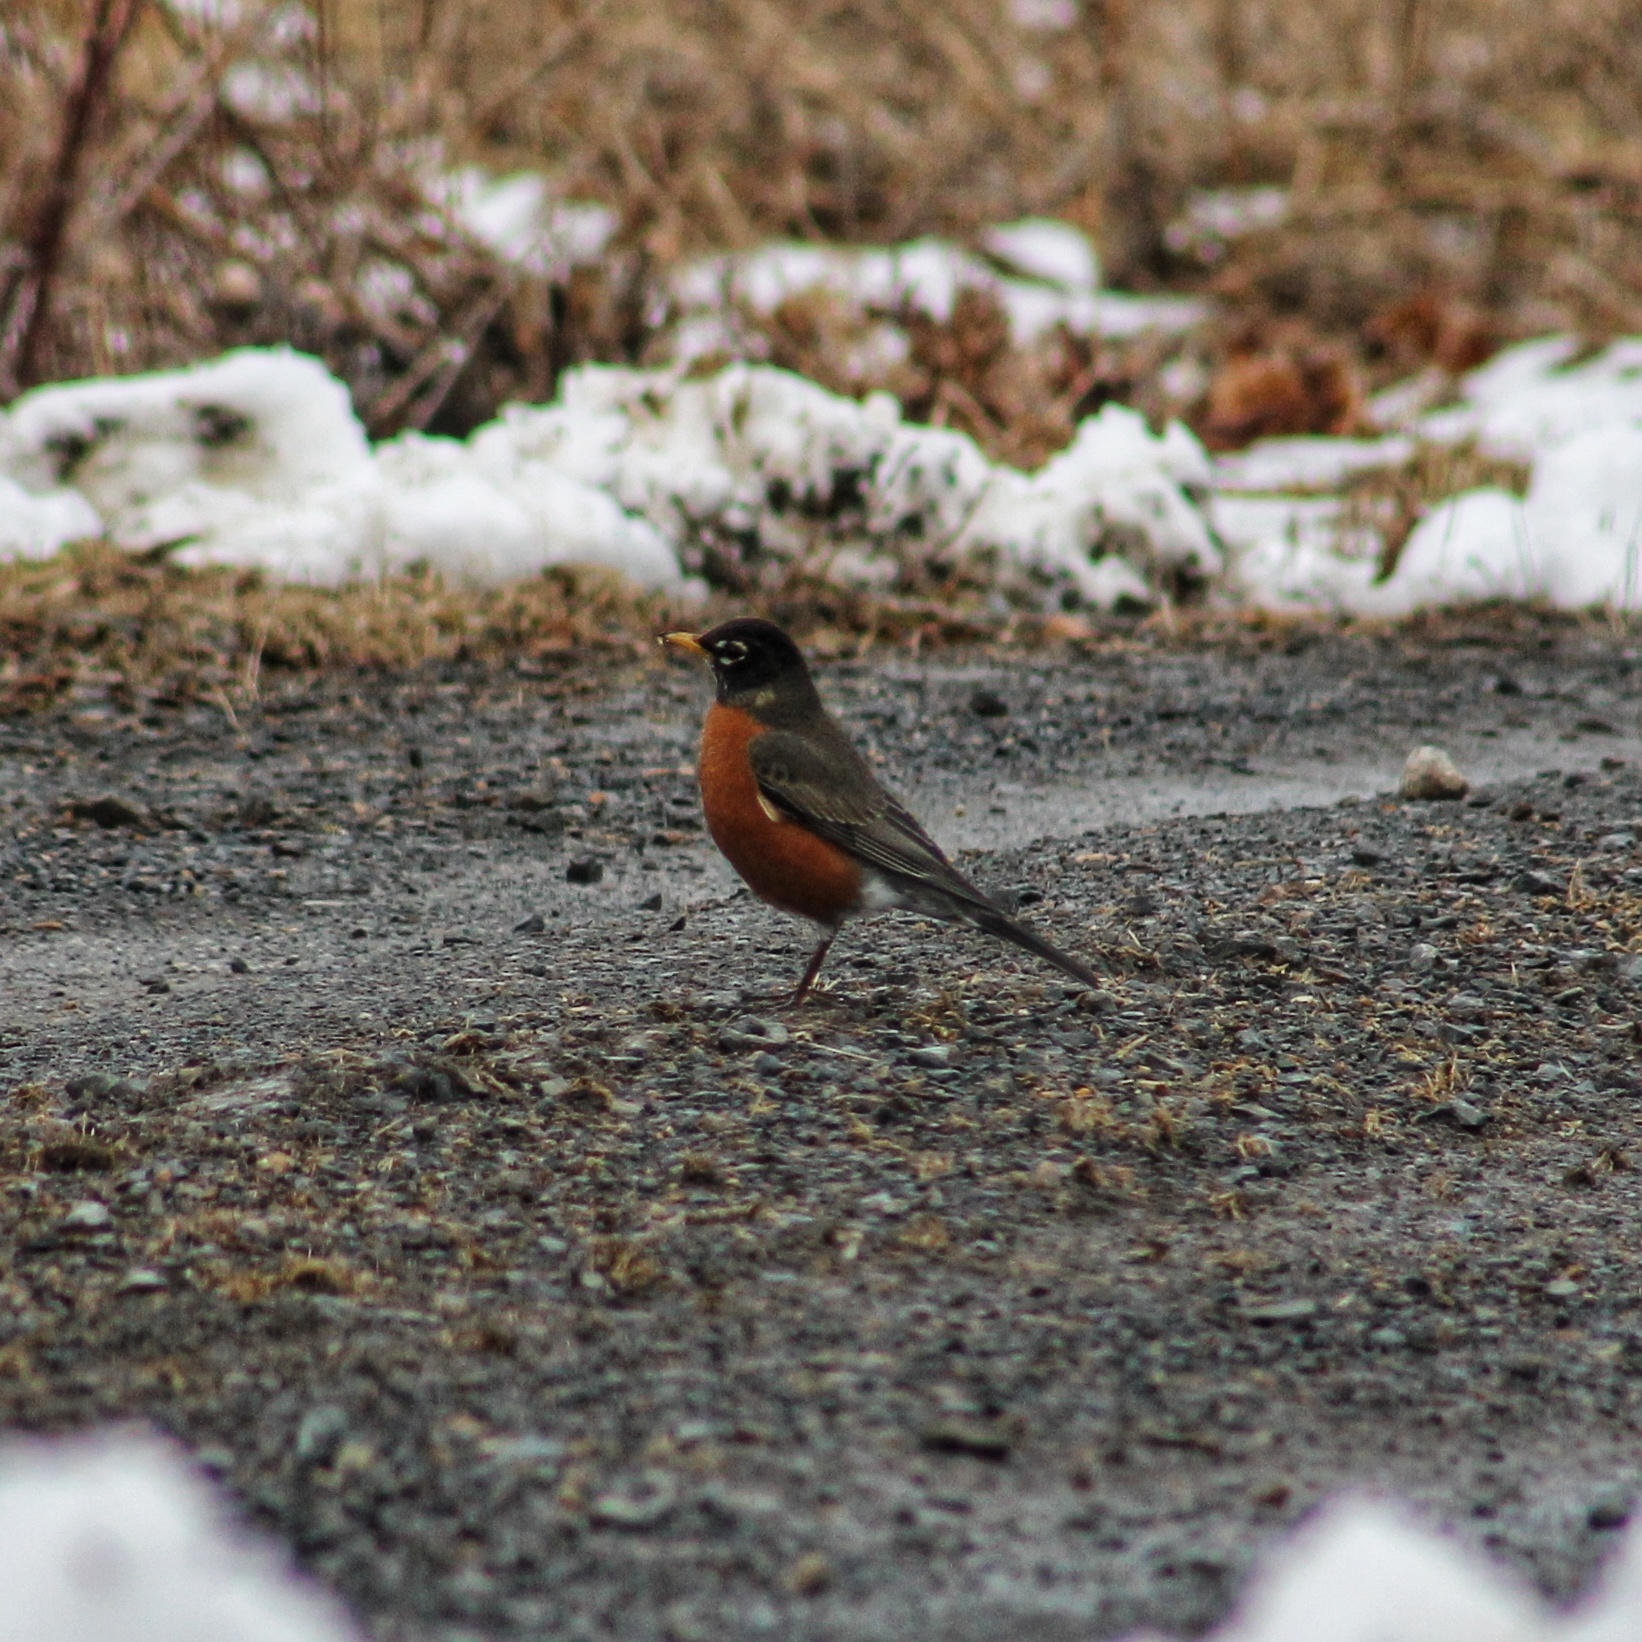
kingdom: Animalia
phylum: Chordata
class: Aves
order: Passeriformes
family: Turdidae
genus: Turdus
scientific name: Turdus migratorius
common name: American robin
